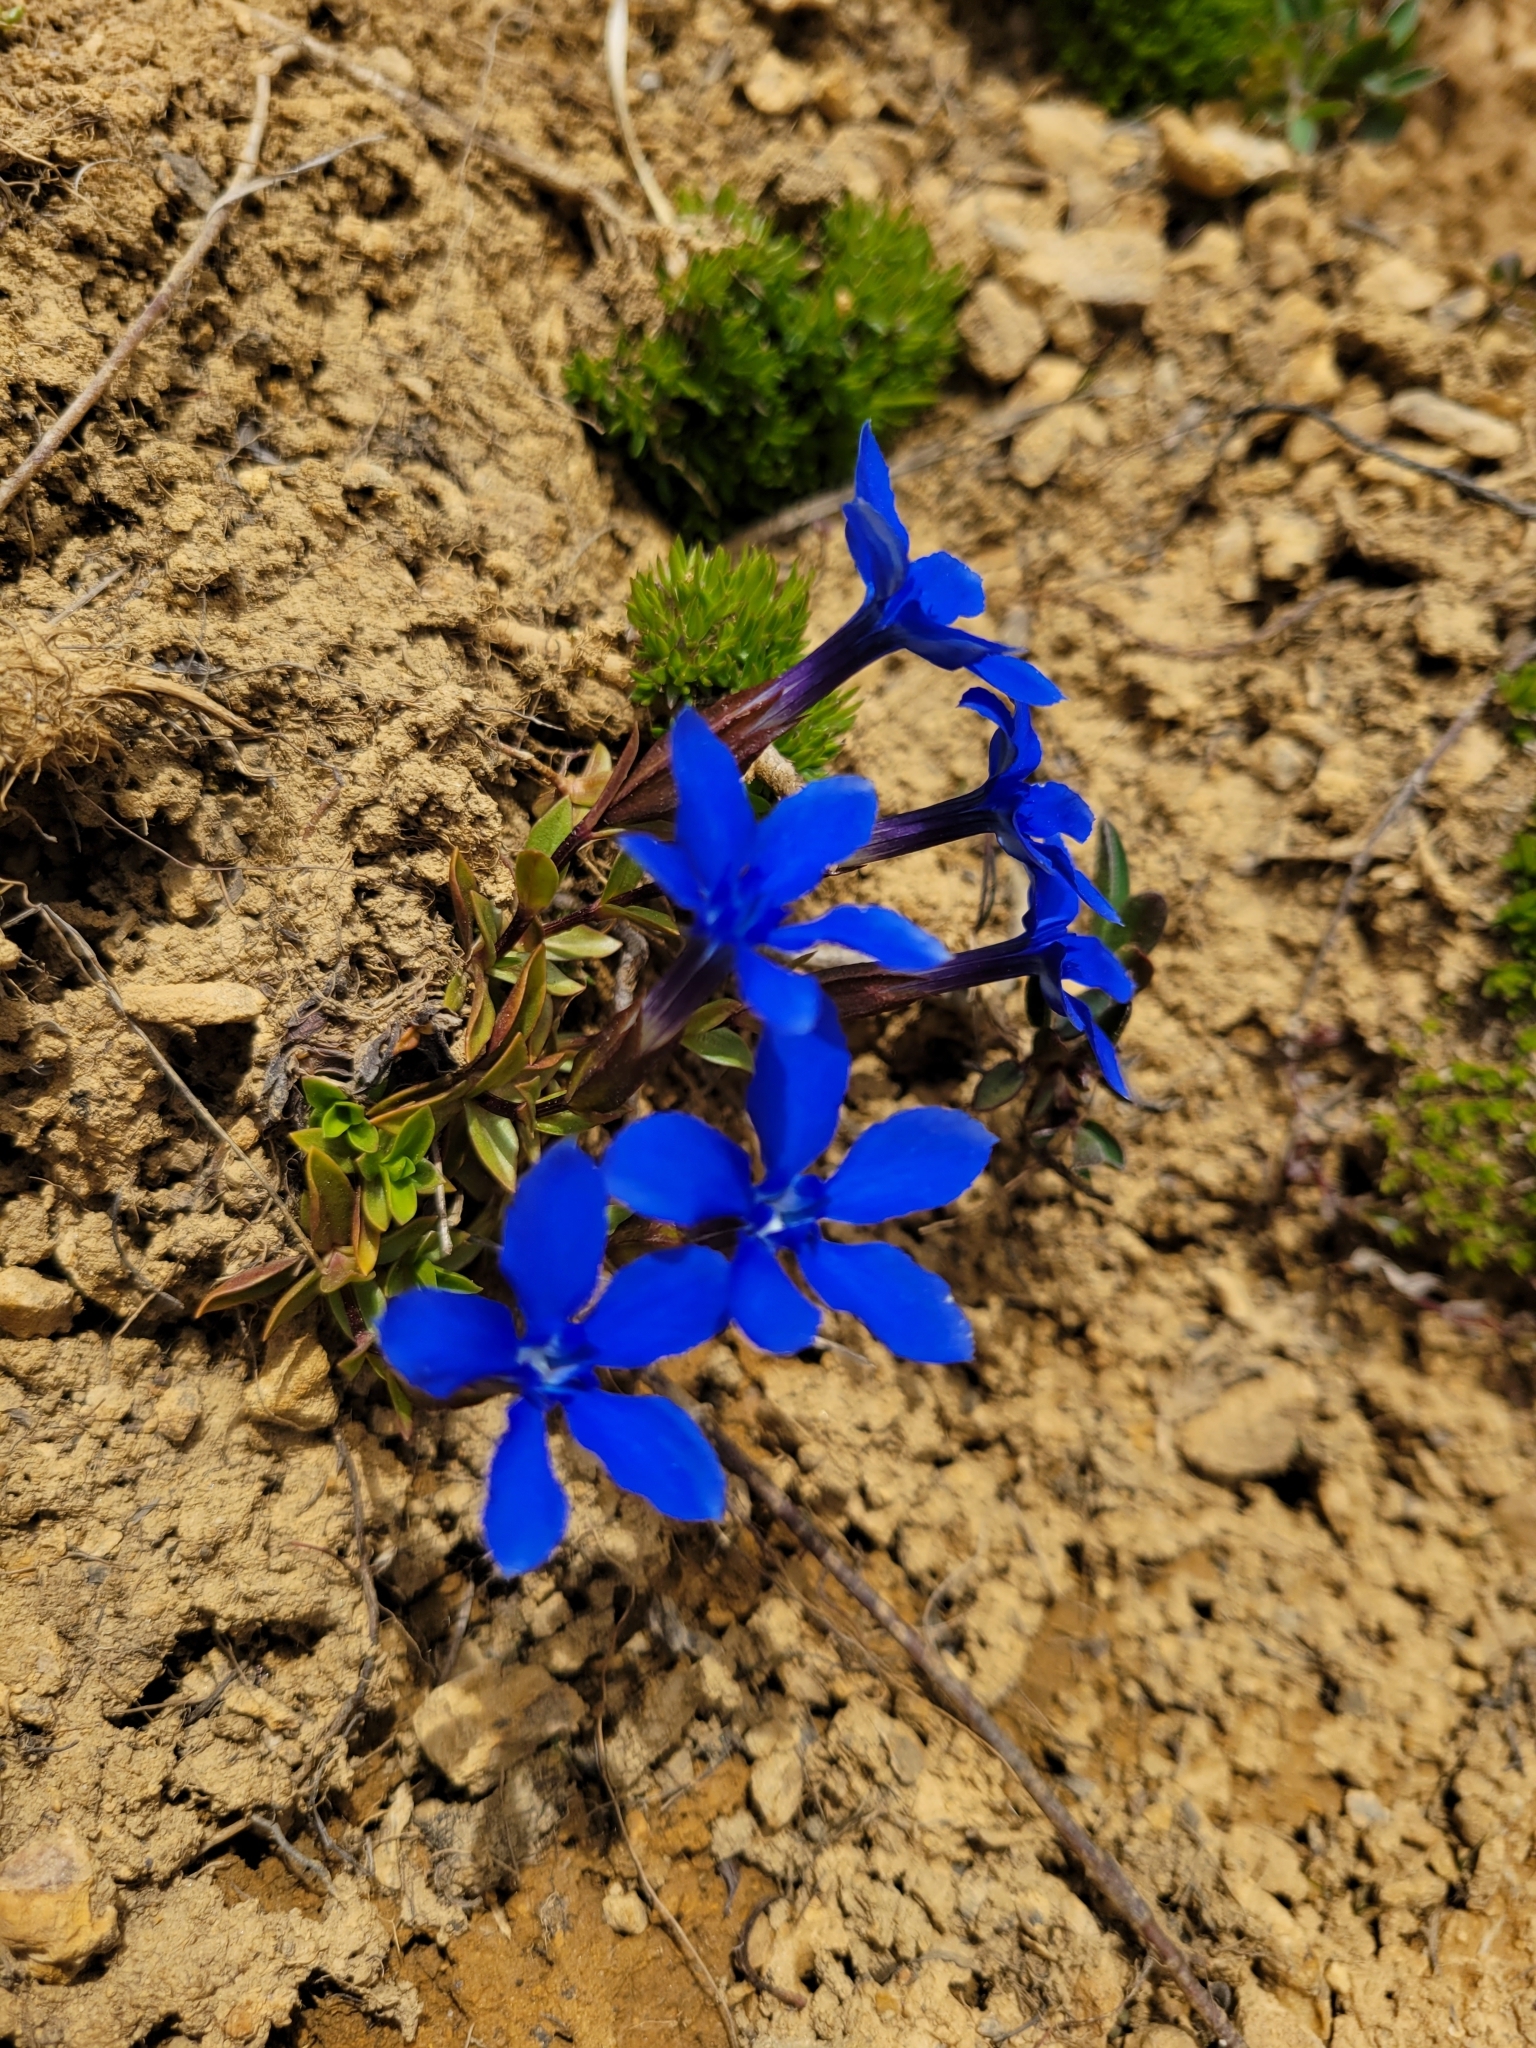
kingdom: Plantae
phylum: Tracheophyta
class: Magnoliopsida
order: Gentianales
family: Gentianaceae
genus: Gentiana
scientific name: Gentiana verna
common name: Spring gentian
